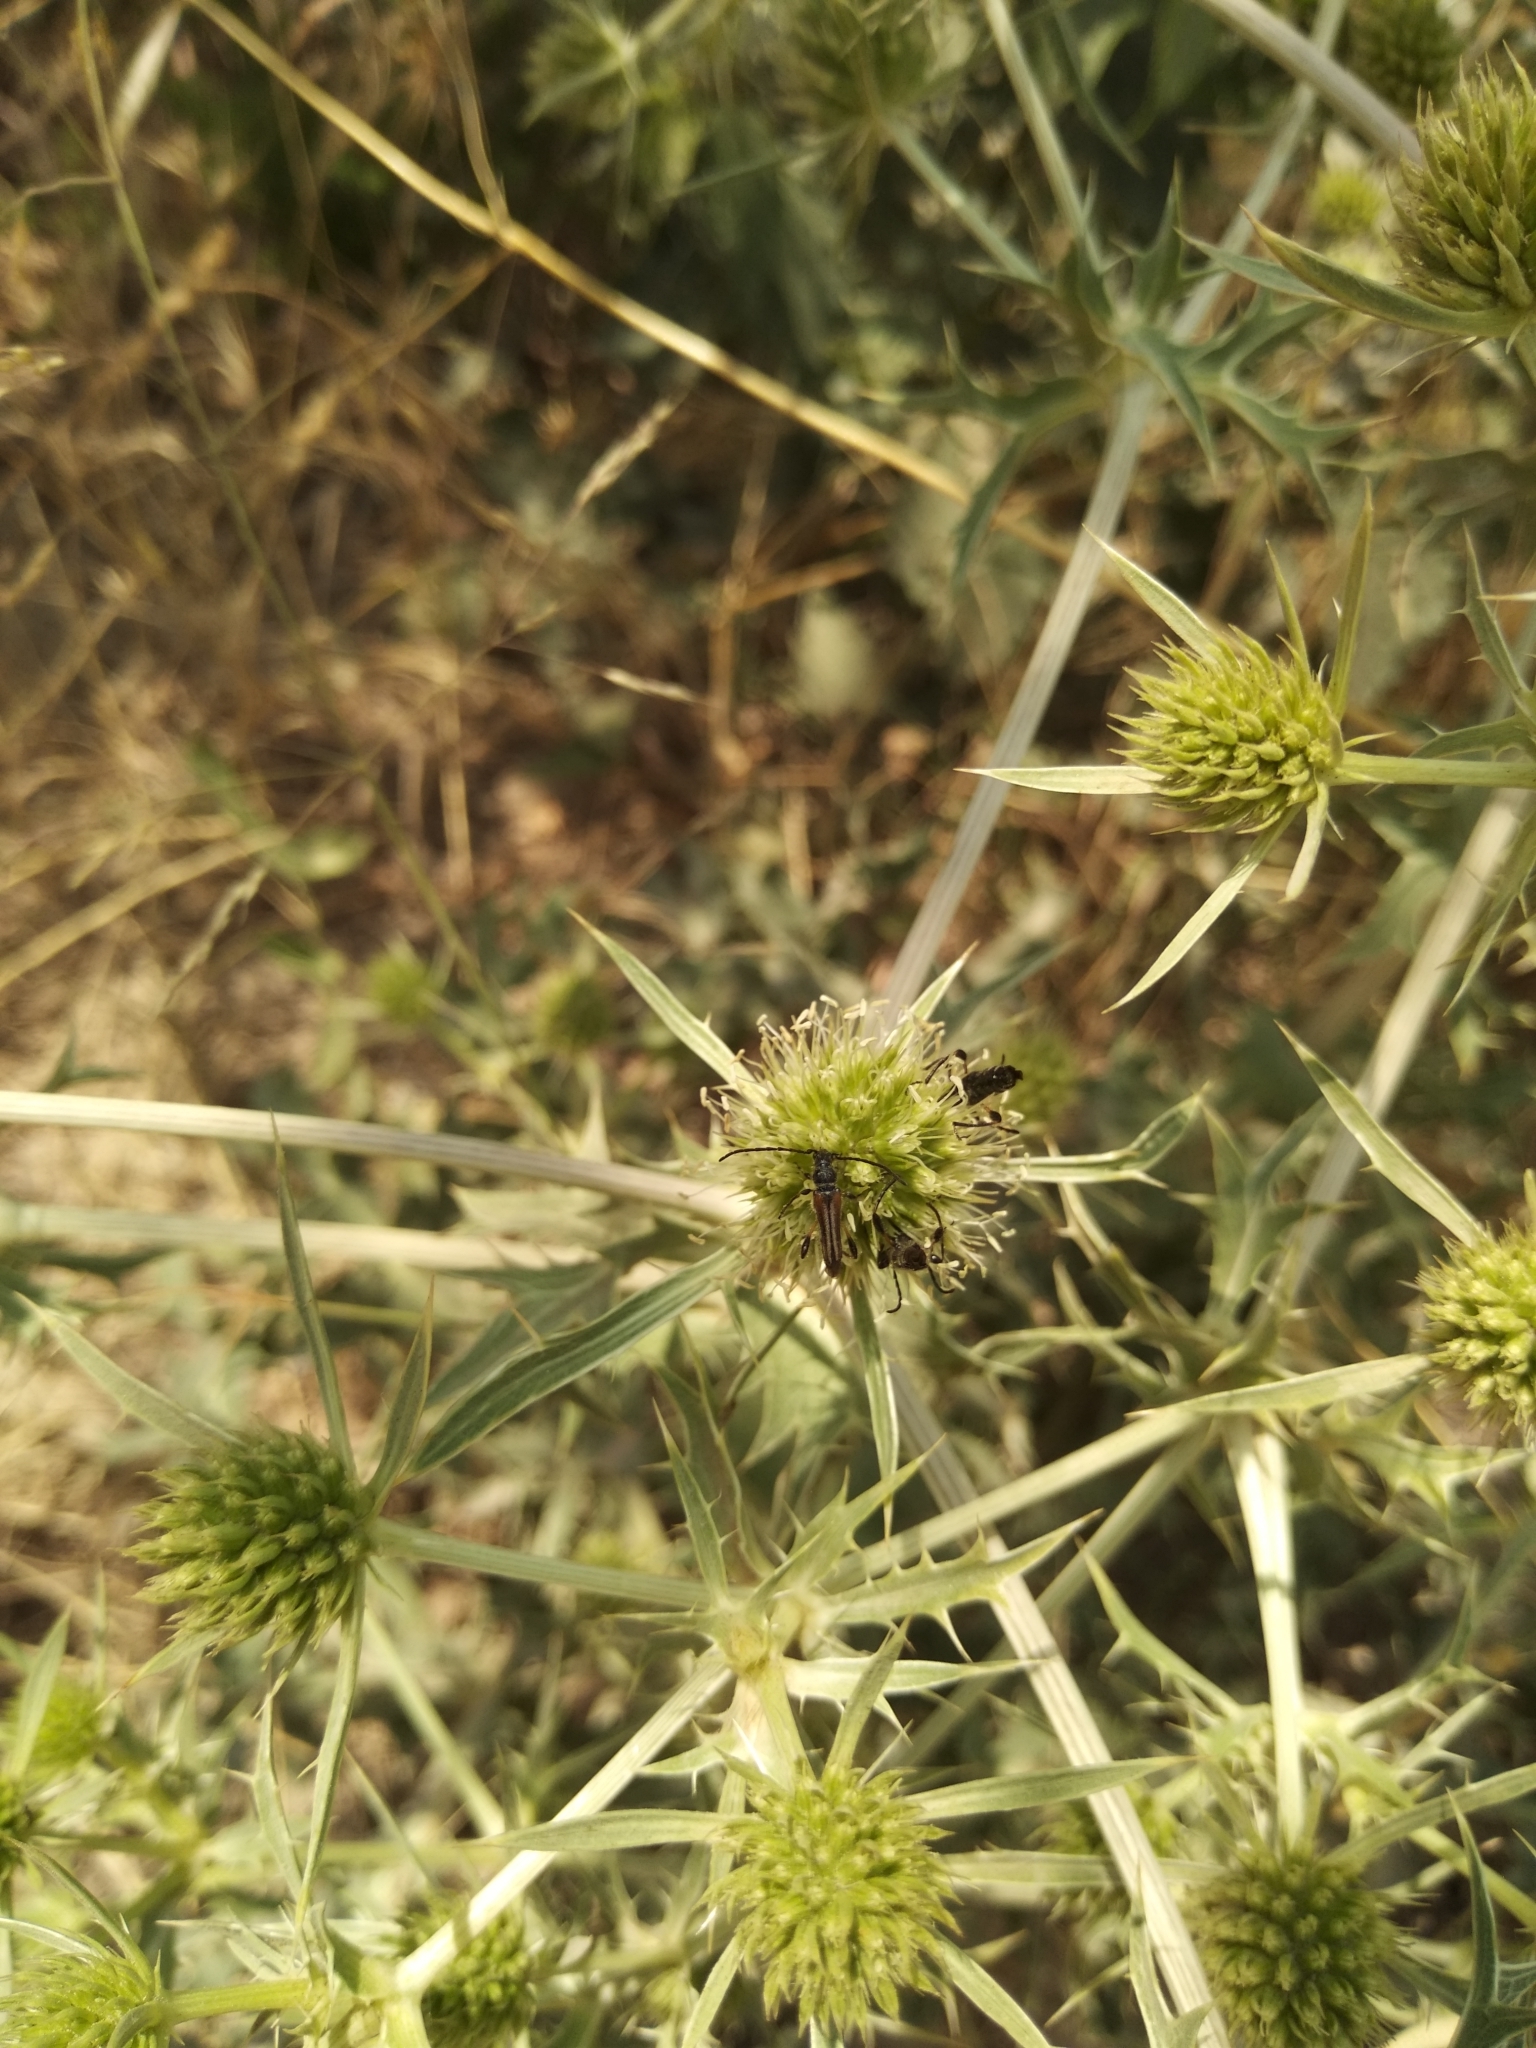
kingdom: Animalia
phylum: Arthropoda
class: Insecta
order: Coleoptera
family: Cerambycidae
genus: Stenopterus
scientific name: Stenopterus ater
